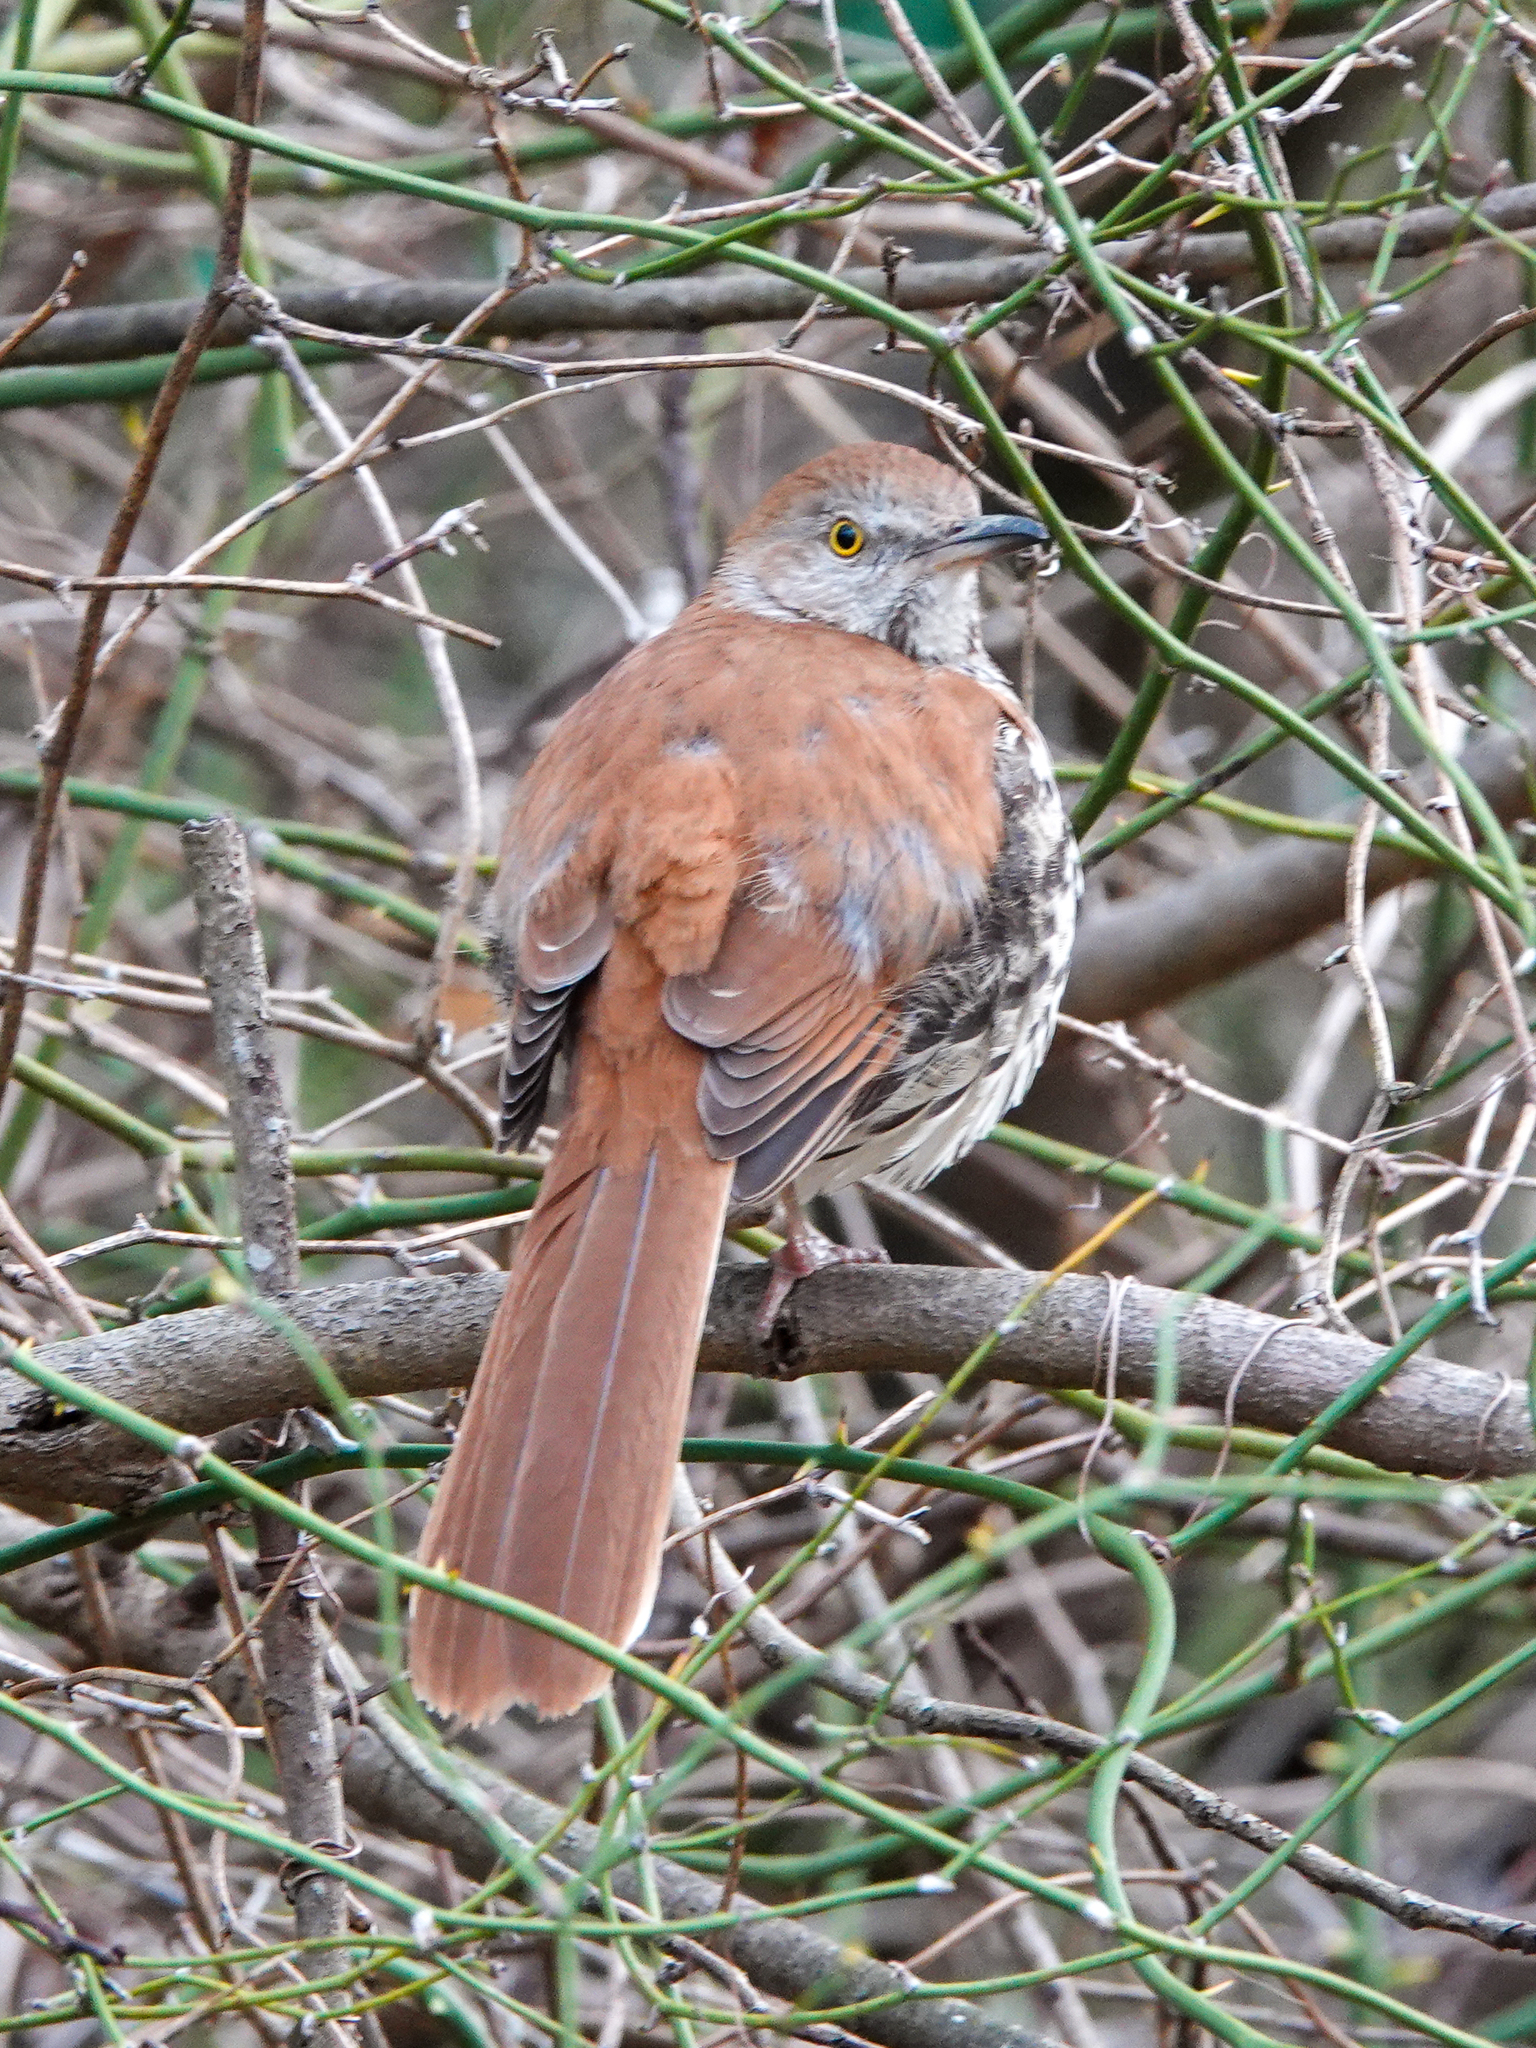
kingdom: Animalia
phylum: Chordata
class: Aves
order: Passeriformes
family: Mimidae
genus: Toxostoma
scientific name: Toxostoma rufum
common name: Brown thrasher
